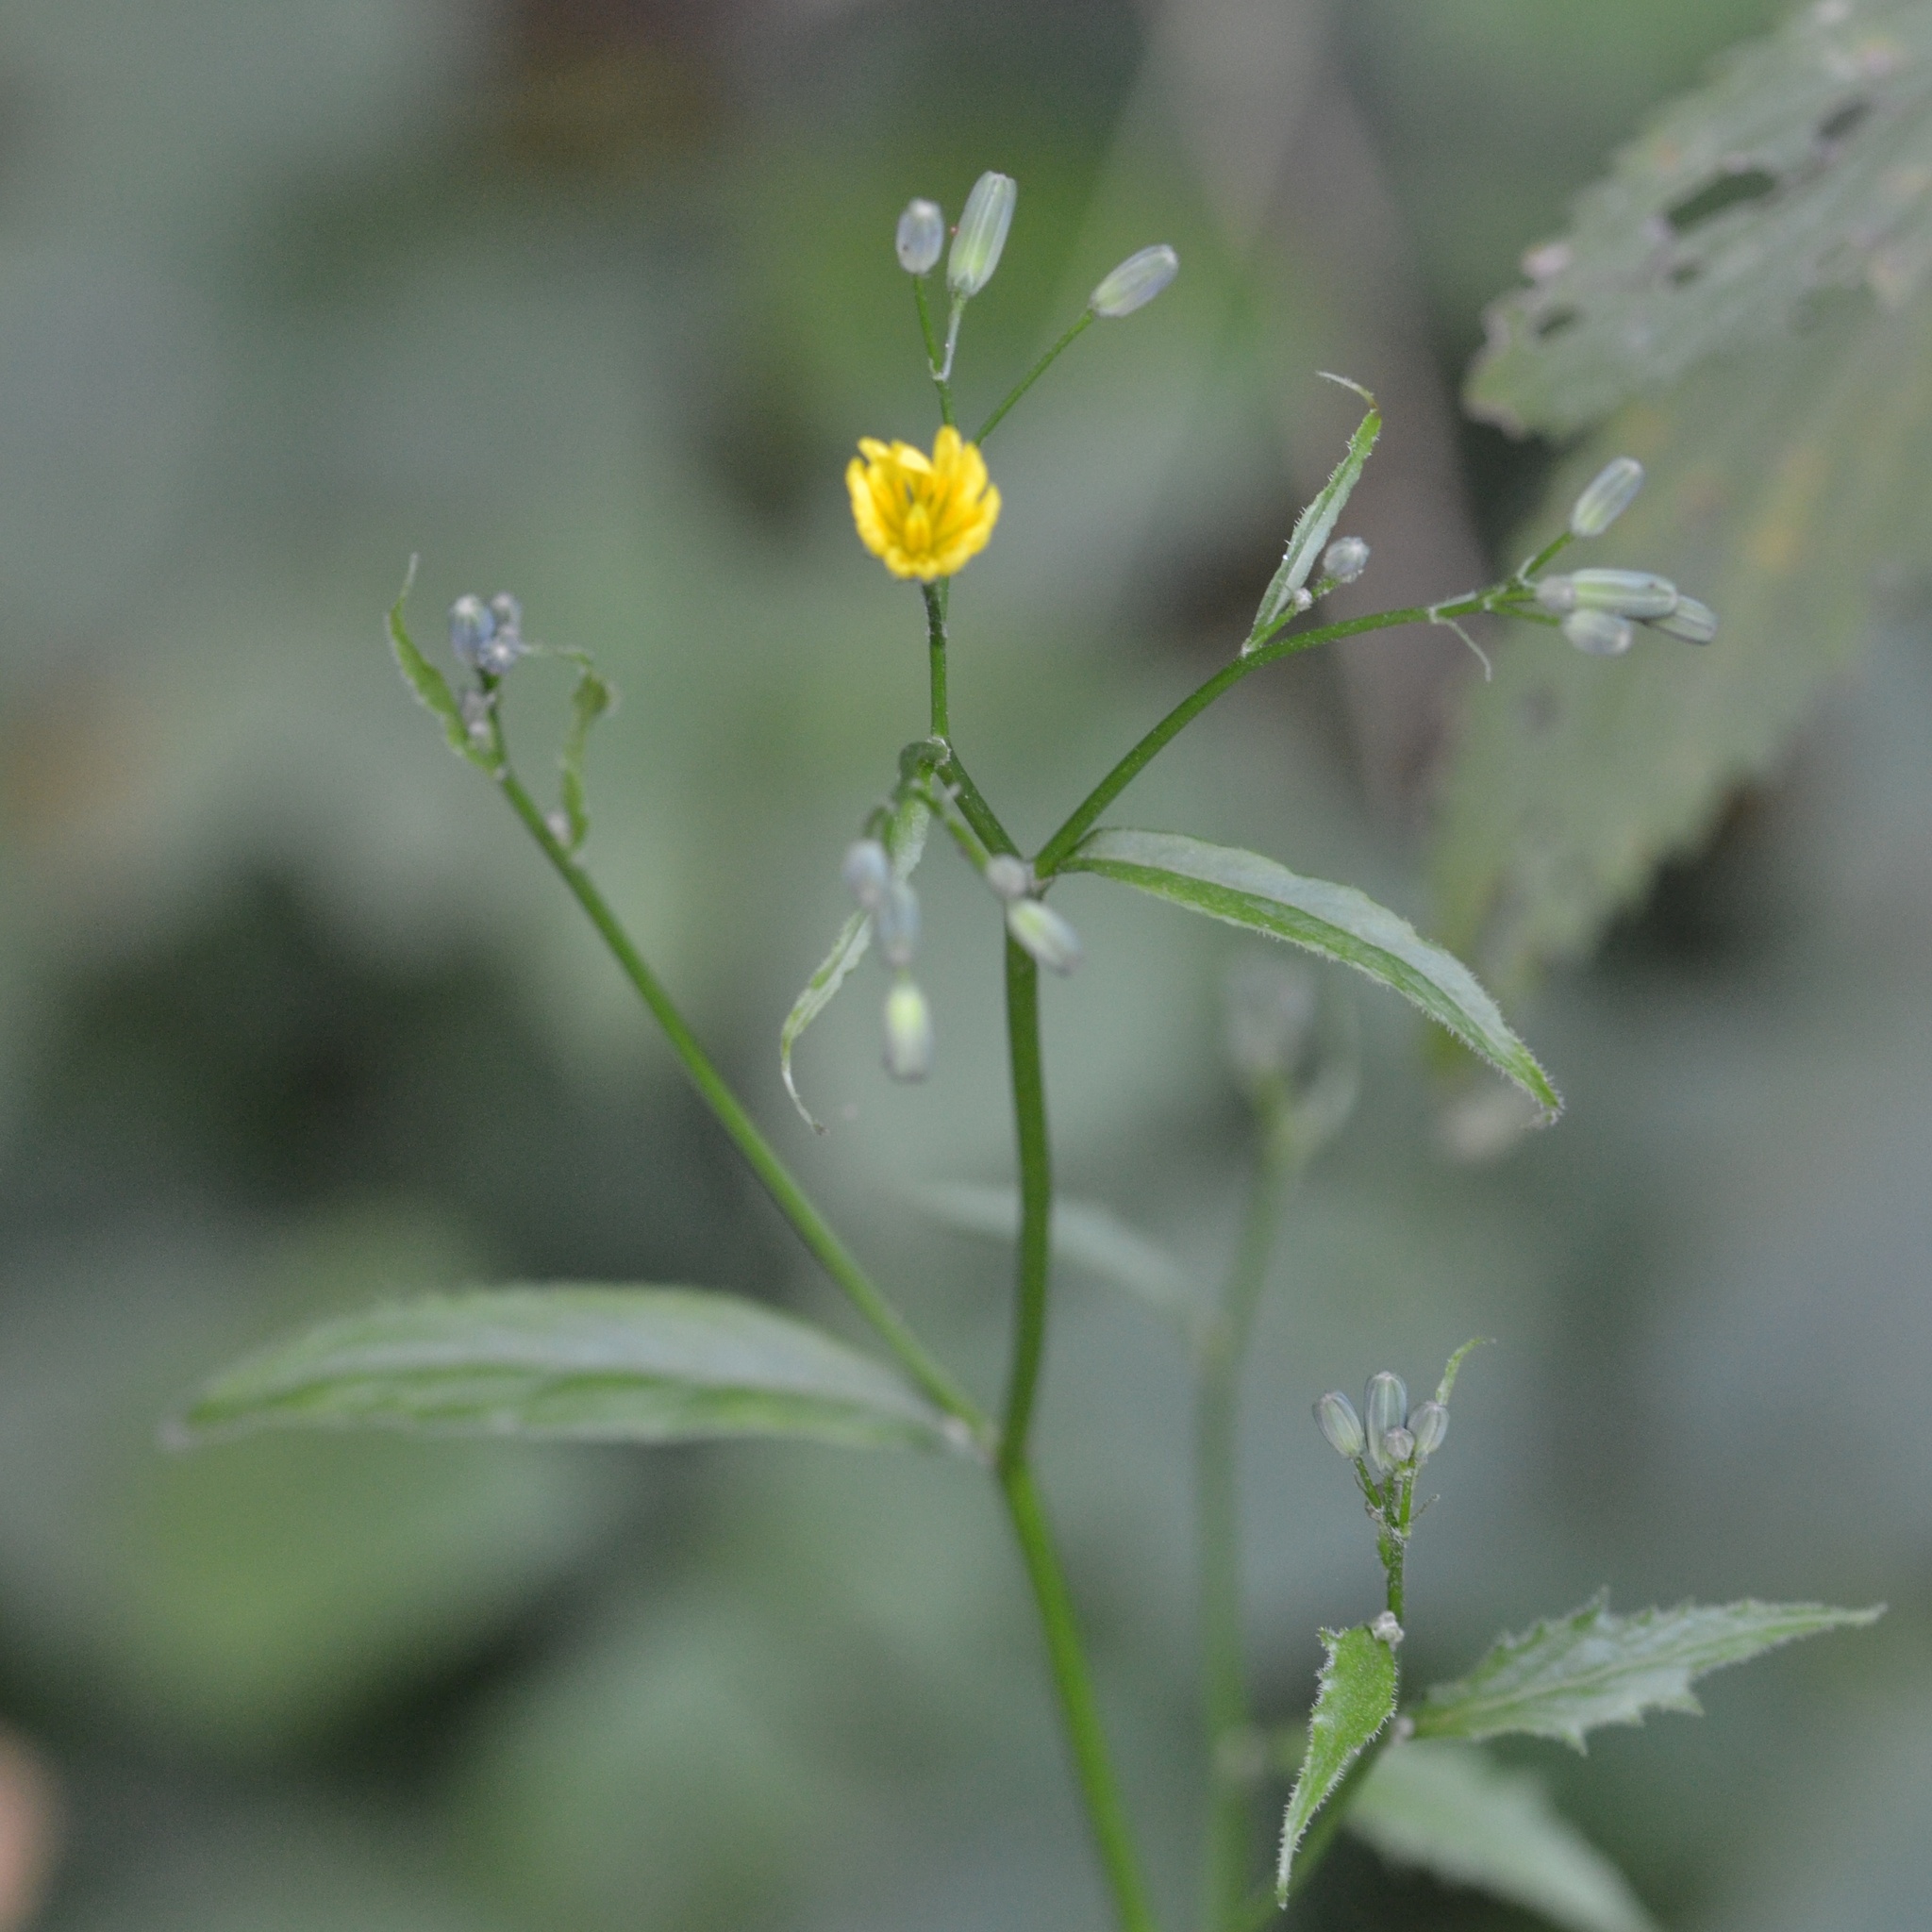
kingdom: Plantae
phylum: Tracheophyta
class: Magnoliopsida
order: Asterales
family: Asteraceae
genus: Lapsana
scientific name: Lapsana communis
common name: Nipplewort
